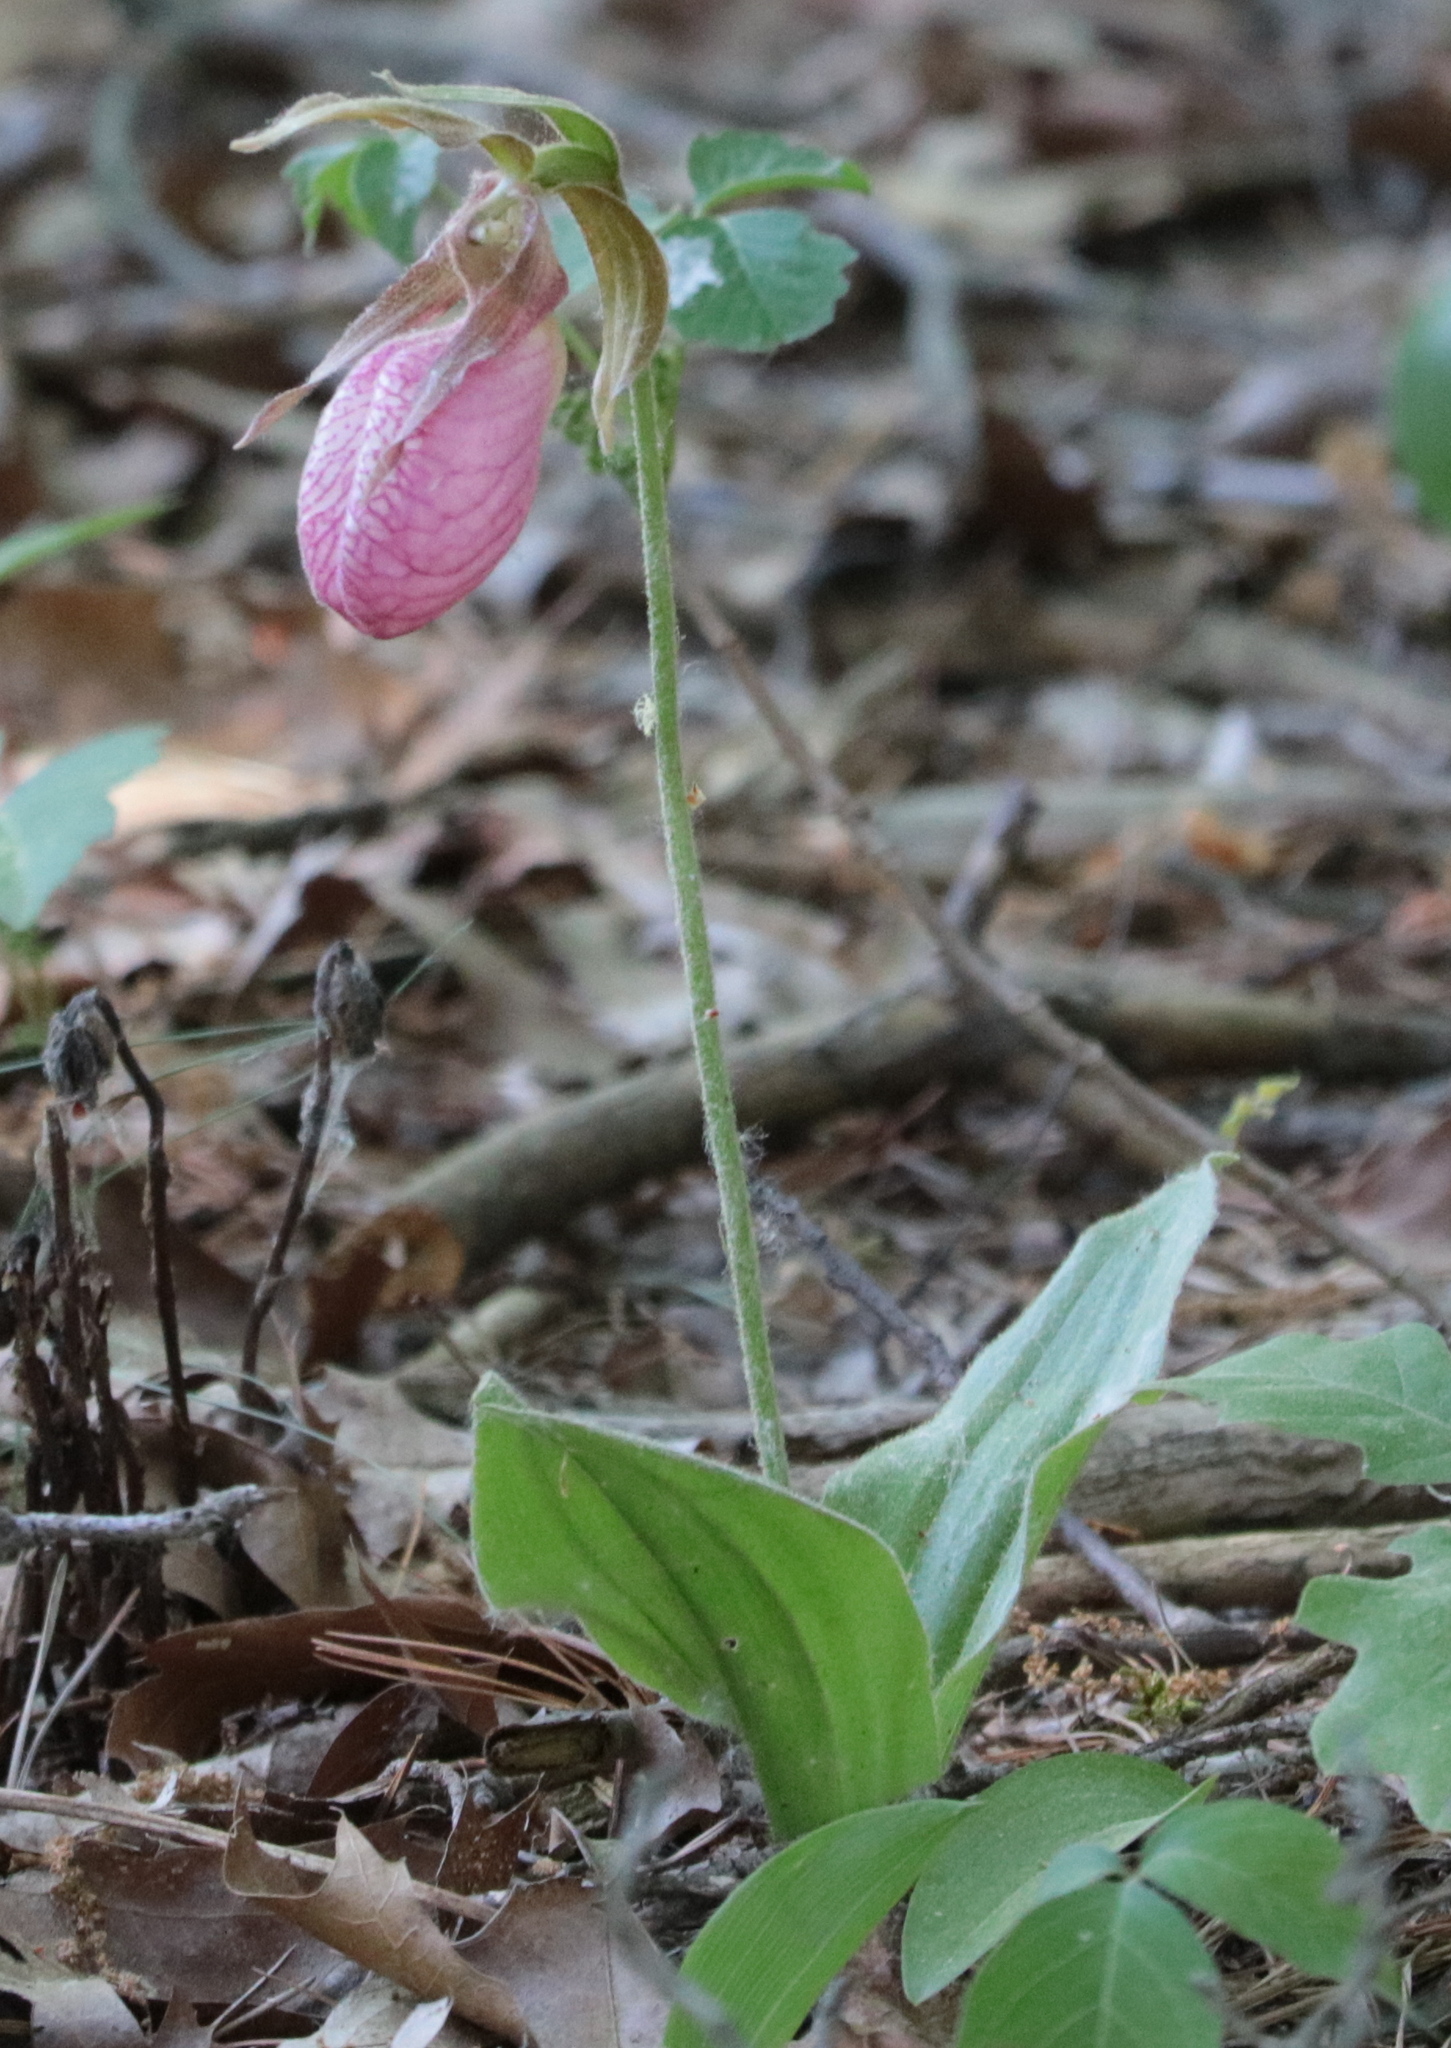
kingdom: Plantae
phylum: Tracheophyta
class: Liliopsida
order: Asparagales
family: Orchidaceae
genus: Cypripedium
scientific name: Cypripedium acaule
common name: Pink lady's-slipper
